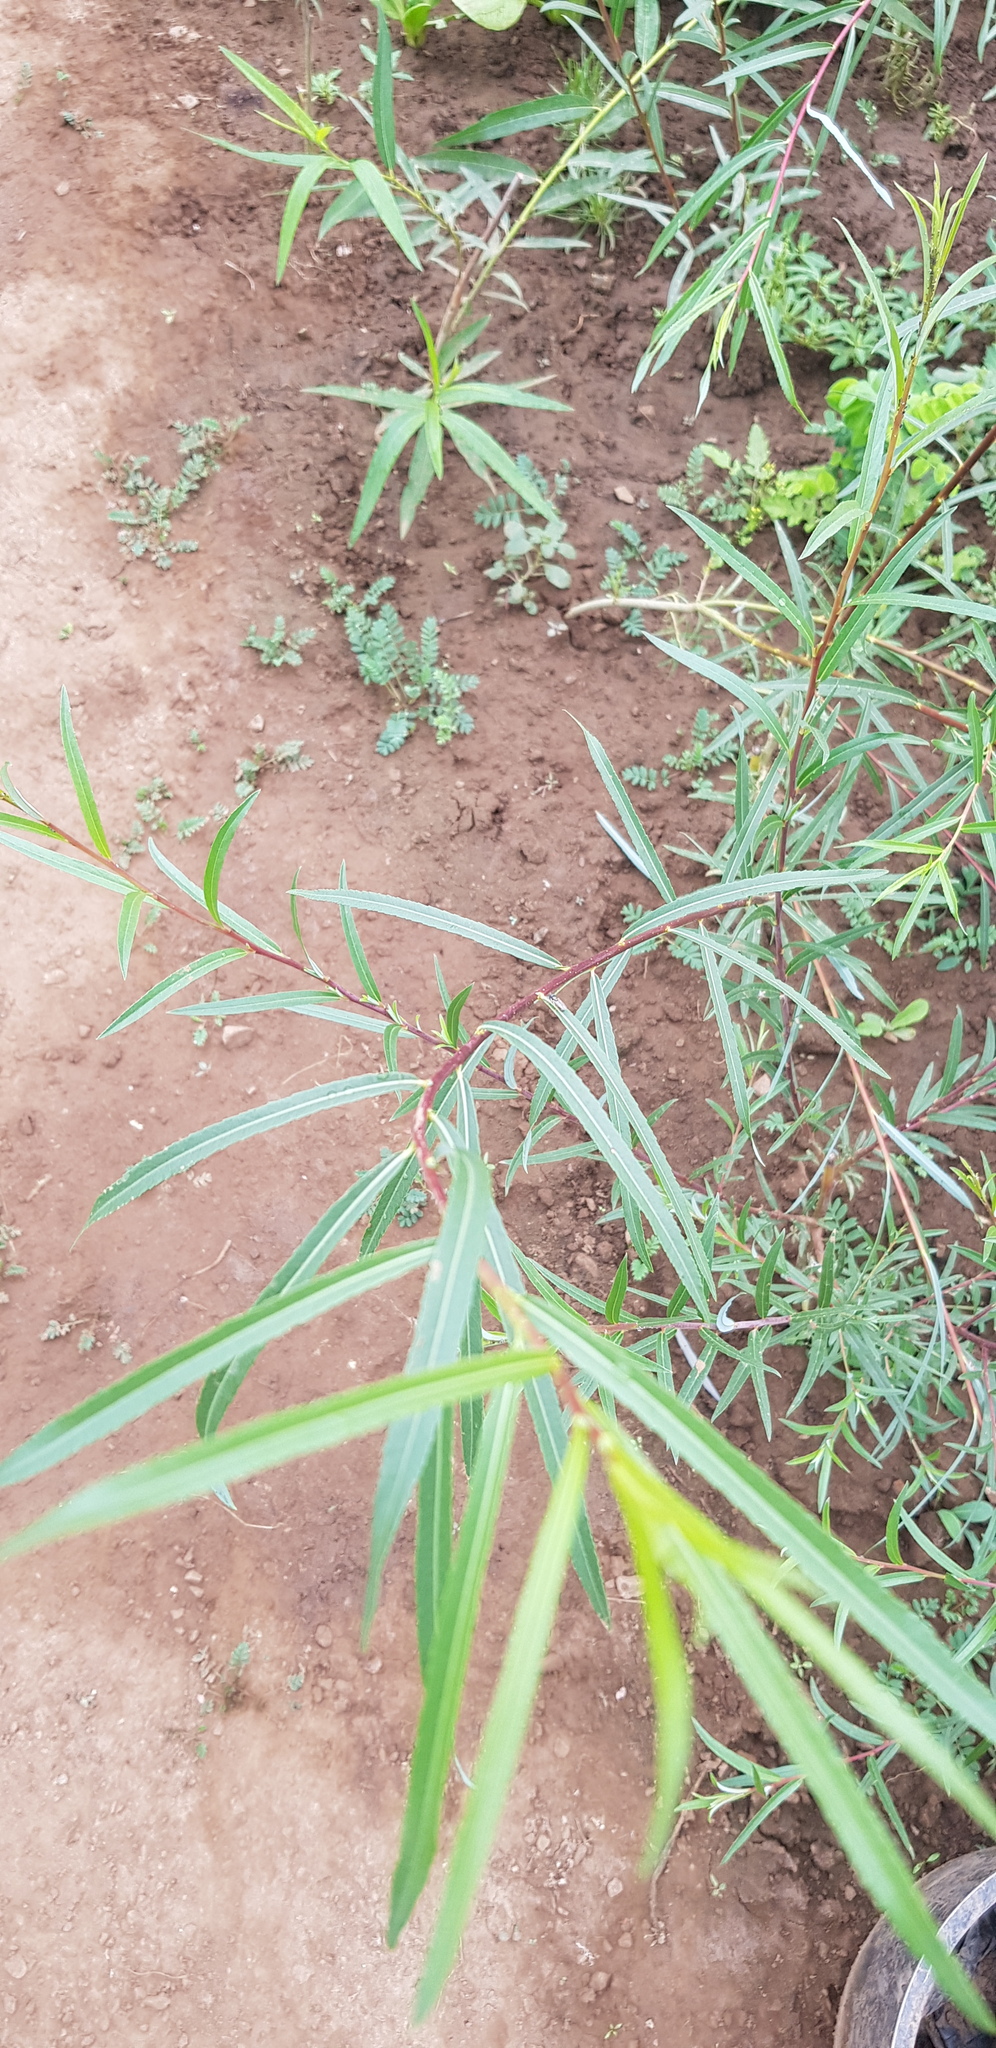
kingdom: Plantae
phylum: Tracheophyta
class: Magnoliopsida
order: Malpighiales
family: Salicaceae
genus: Salix
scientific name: Salix viminalis
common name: Osier
